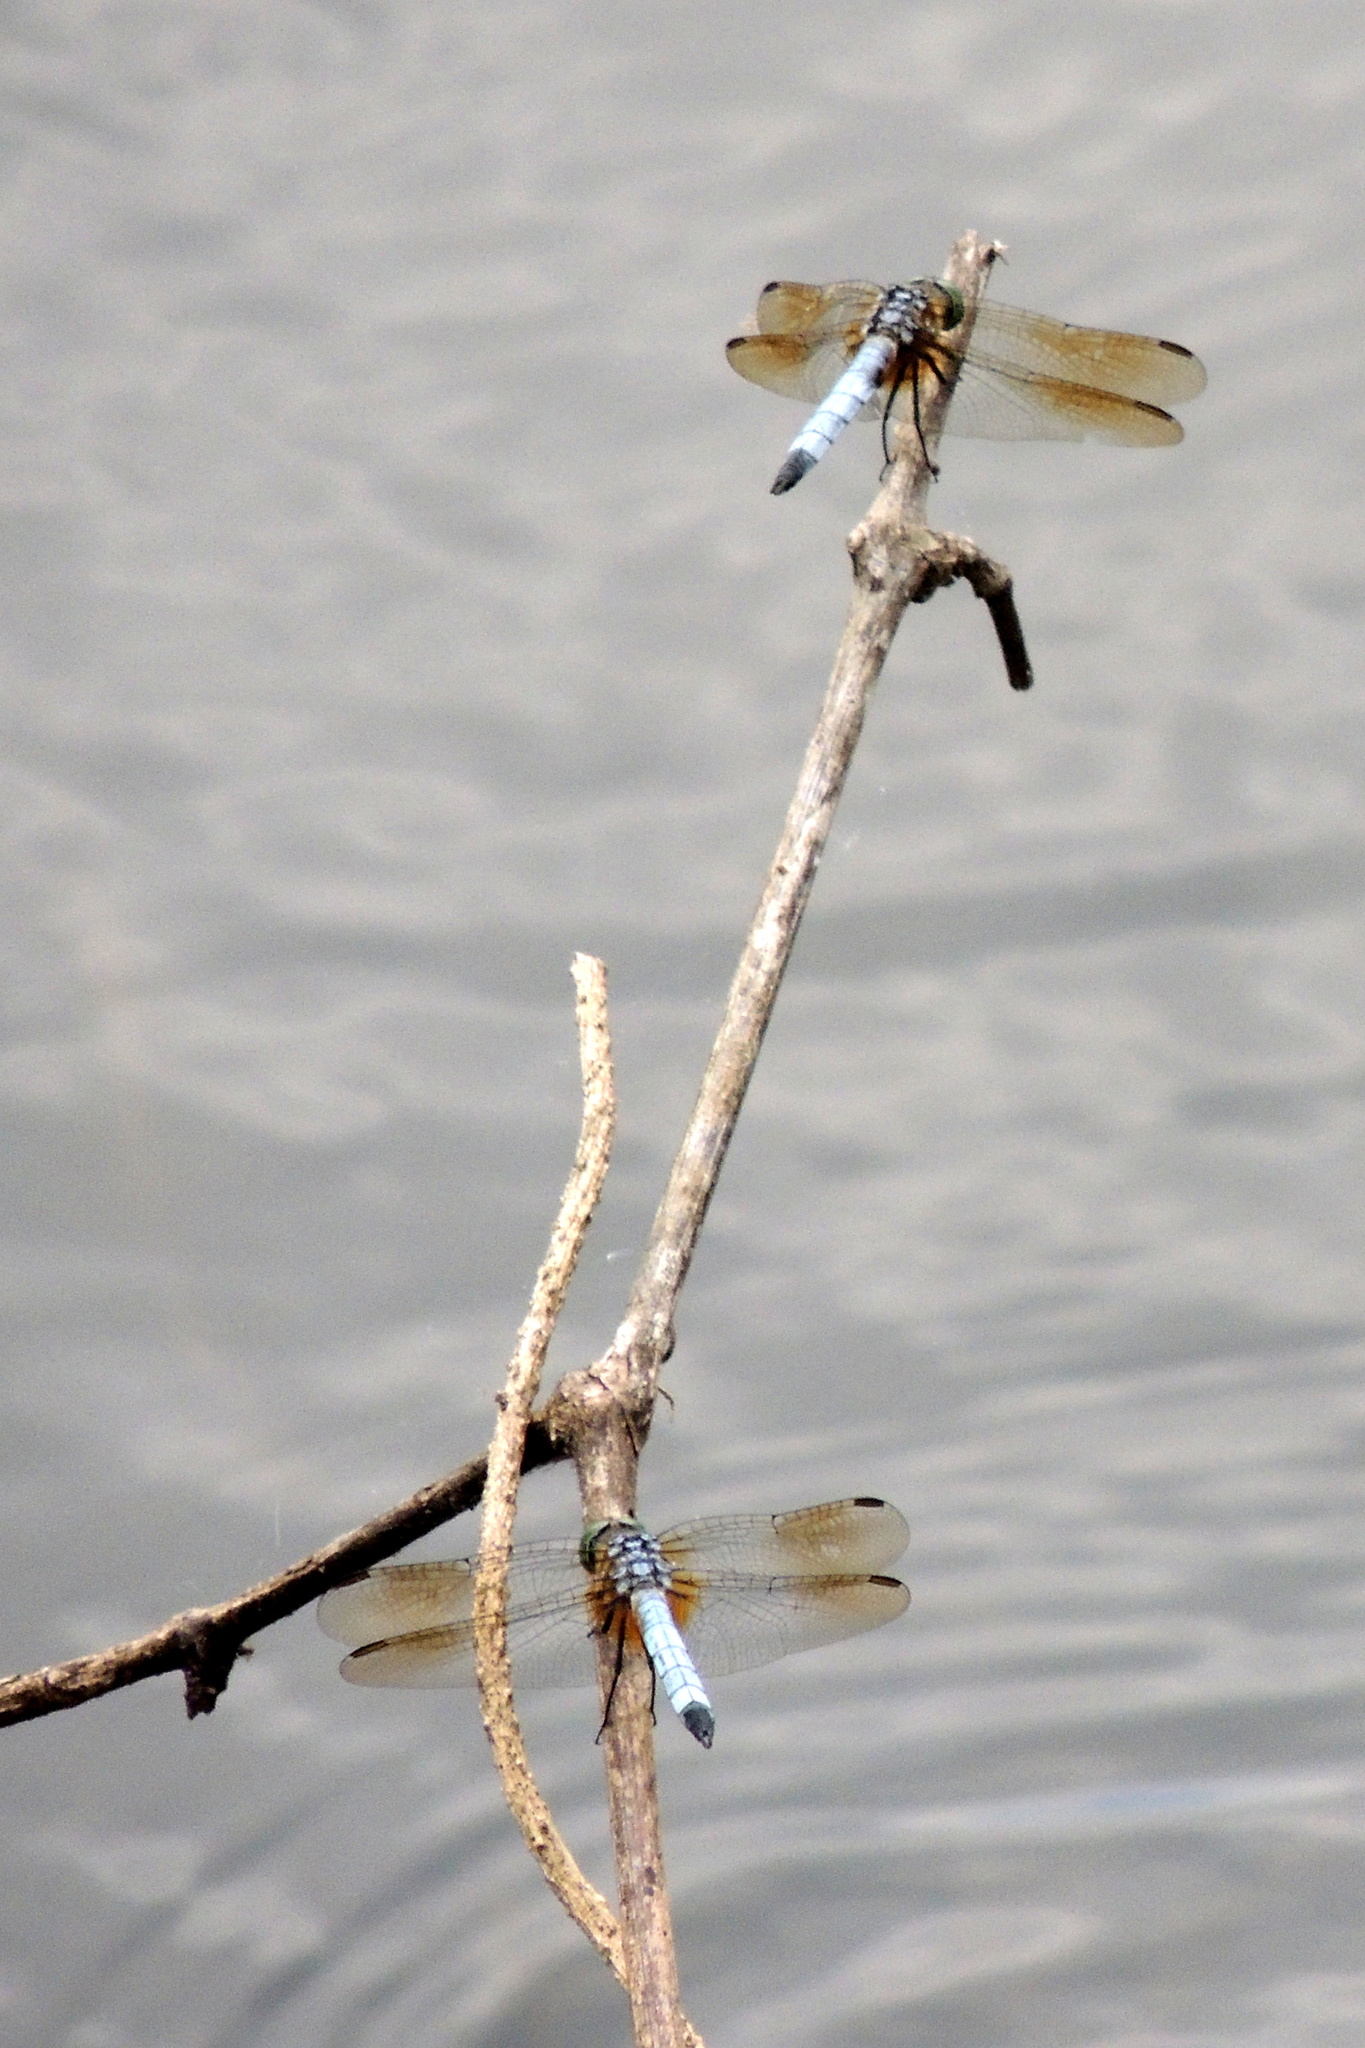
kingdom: Animalia
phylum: Arthropoda
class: Insecta
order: Odonata
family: Libellulidae
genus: Pachydiplax
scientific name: Pachydiplax longipennis
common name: Blue dasher
